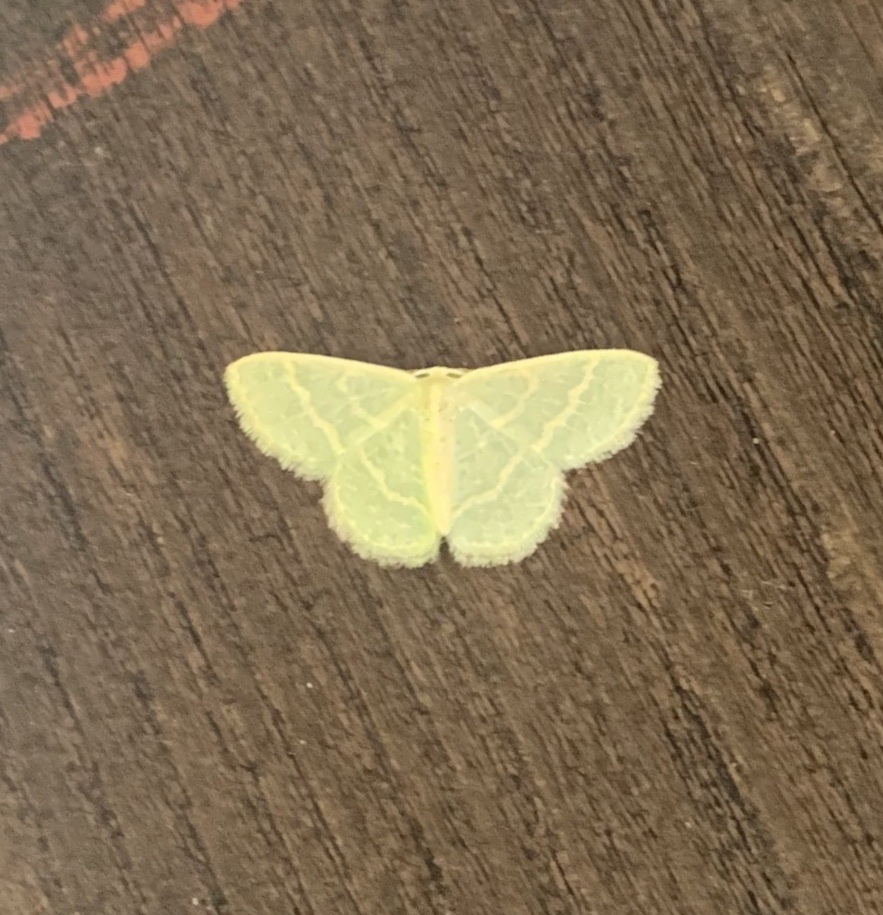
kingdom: Animalia
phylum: Arthropoda
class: Insecta
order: Lepidoptera
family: Geometridae
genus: Chlorochlamys
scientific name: Chlorochlamys chloroleucaria
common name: Blackberry looper
